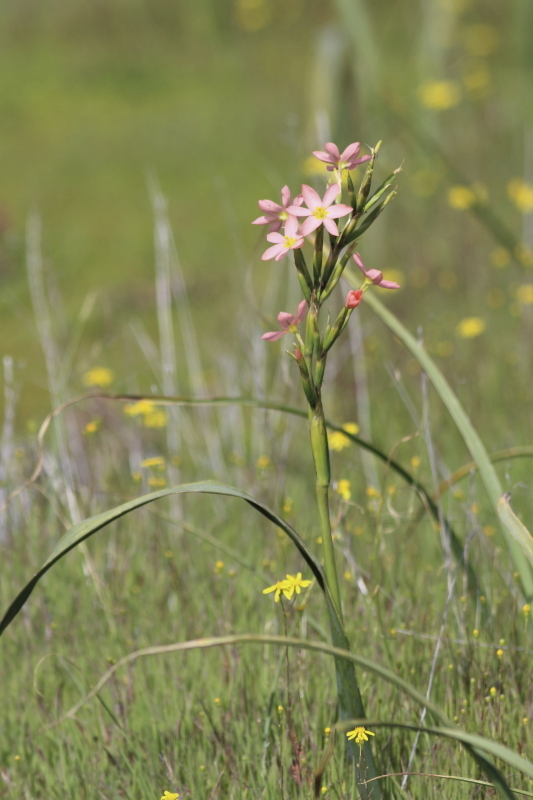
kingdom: Plantae
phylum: Tracheophyta
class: Liliopsida
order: Asparagales
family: Iridaceae
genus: Moraea
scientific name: Moraea miniata
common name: Two-leaf cape-tulip
